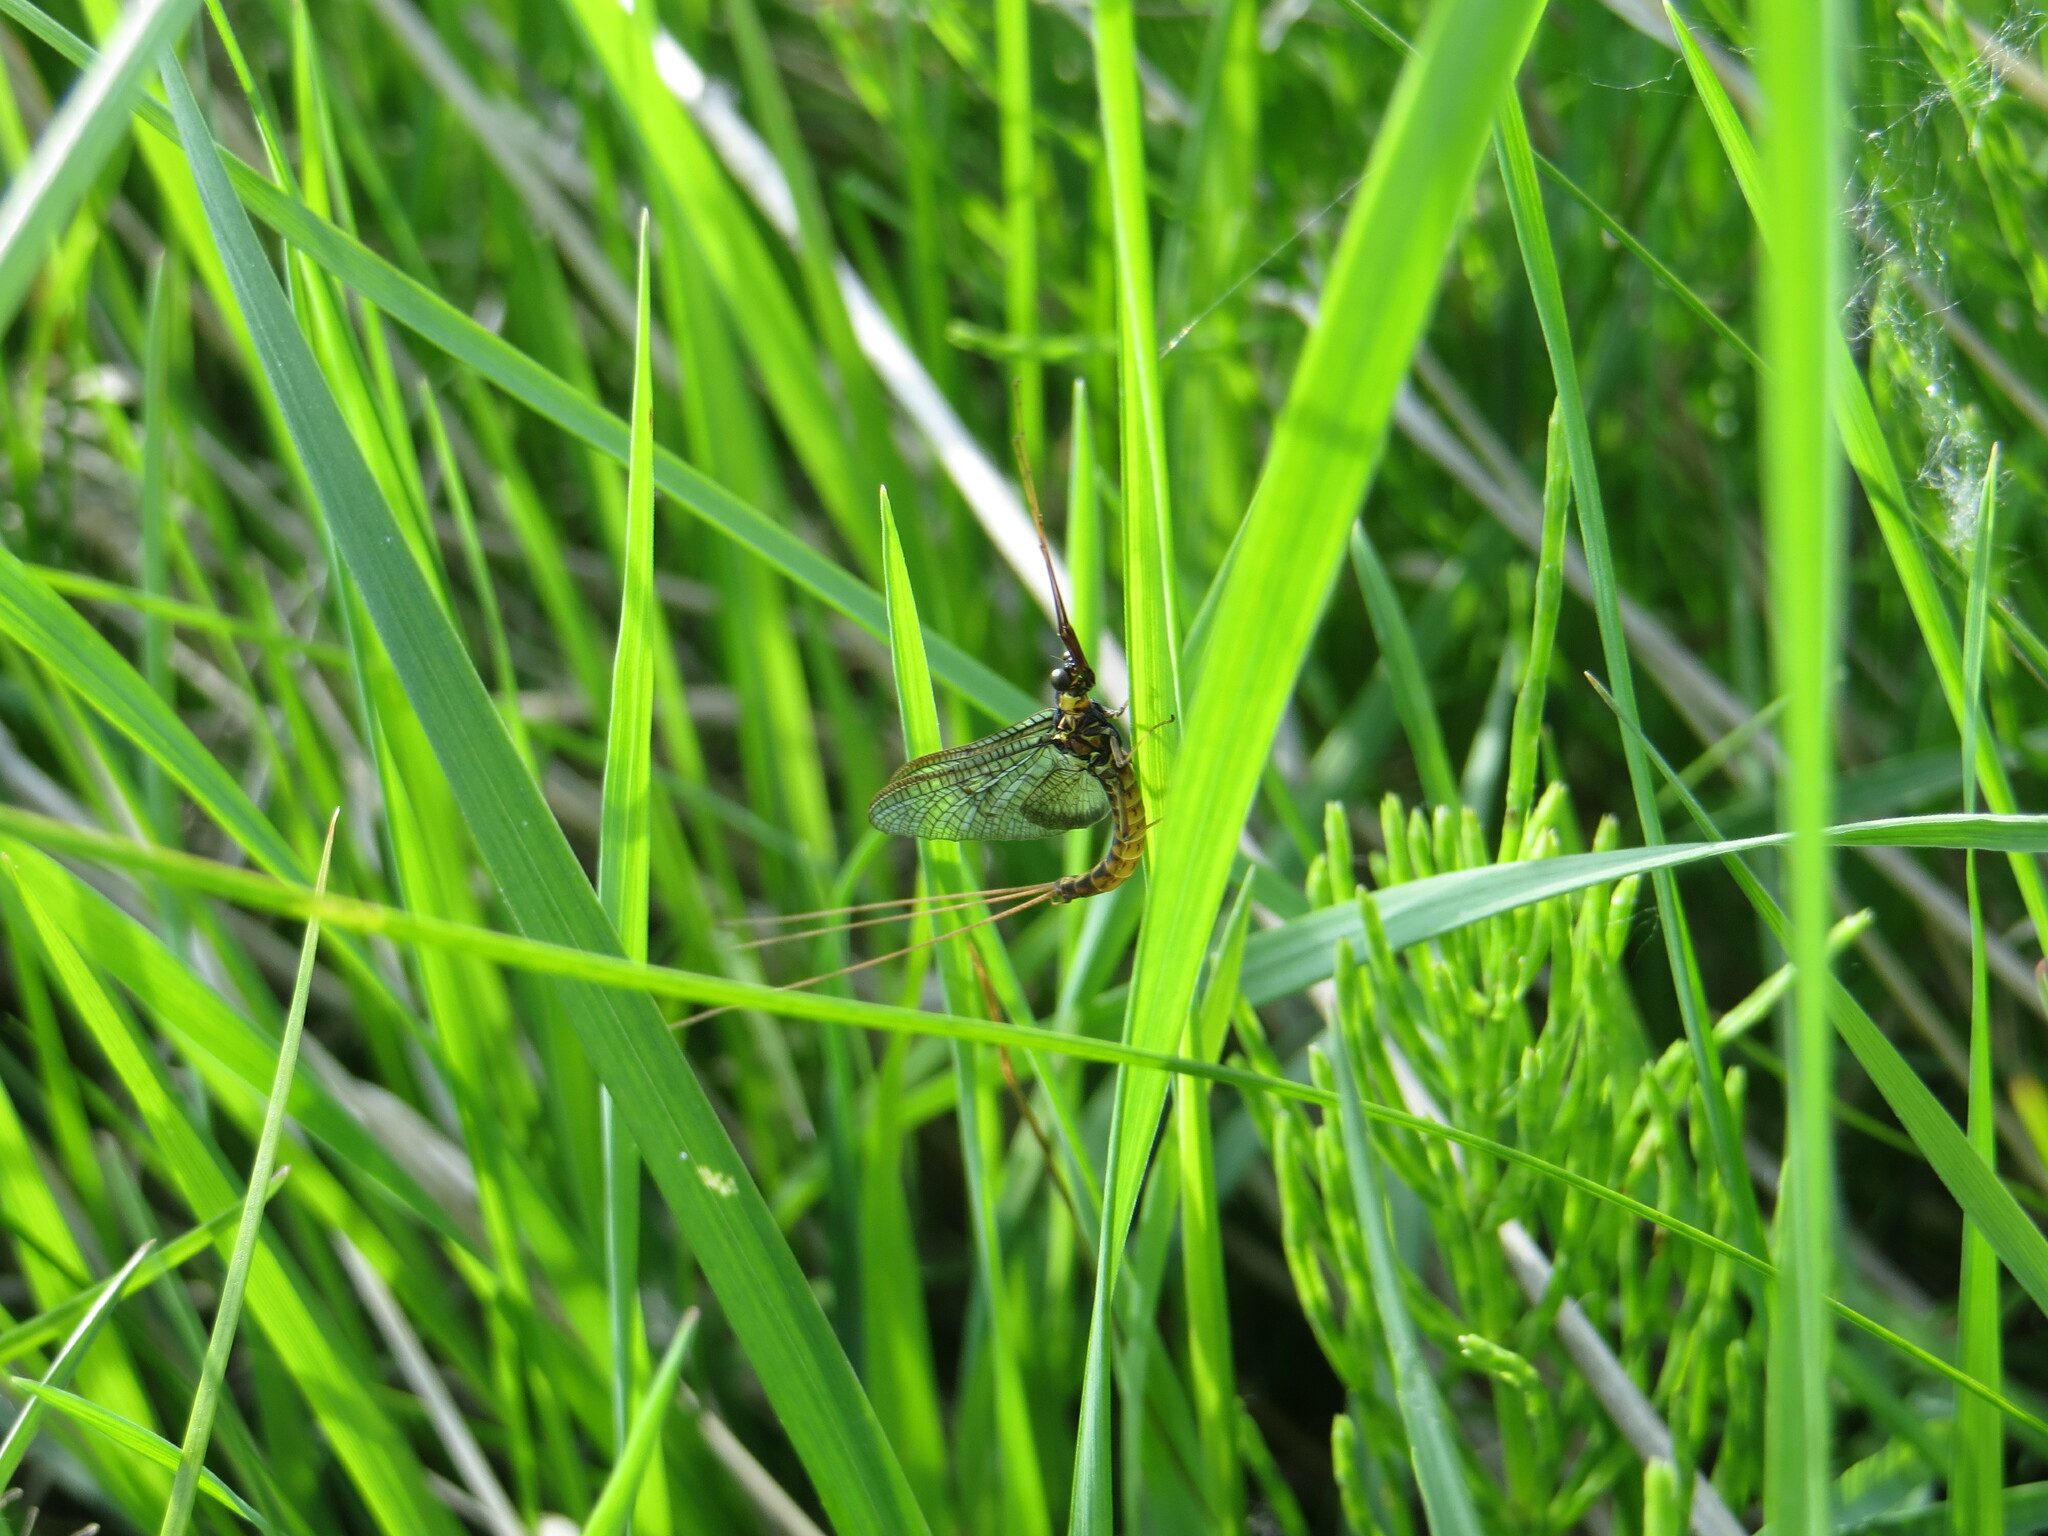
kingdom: Animalia
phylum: Arthropoda
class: Insecta
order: Ephemeroptera
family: Ephemeridae
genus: Ephemera
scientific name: Ephemera vulgata
